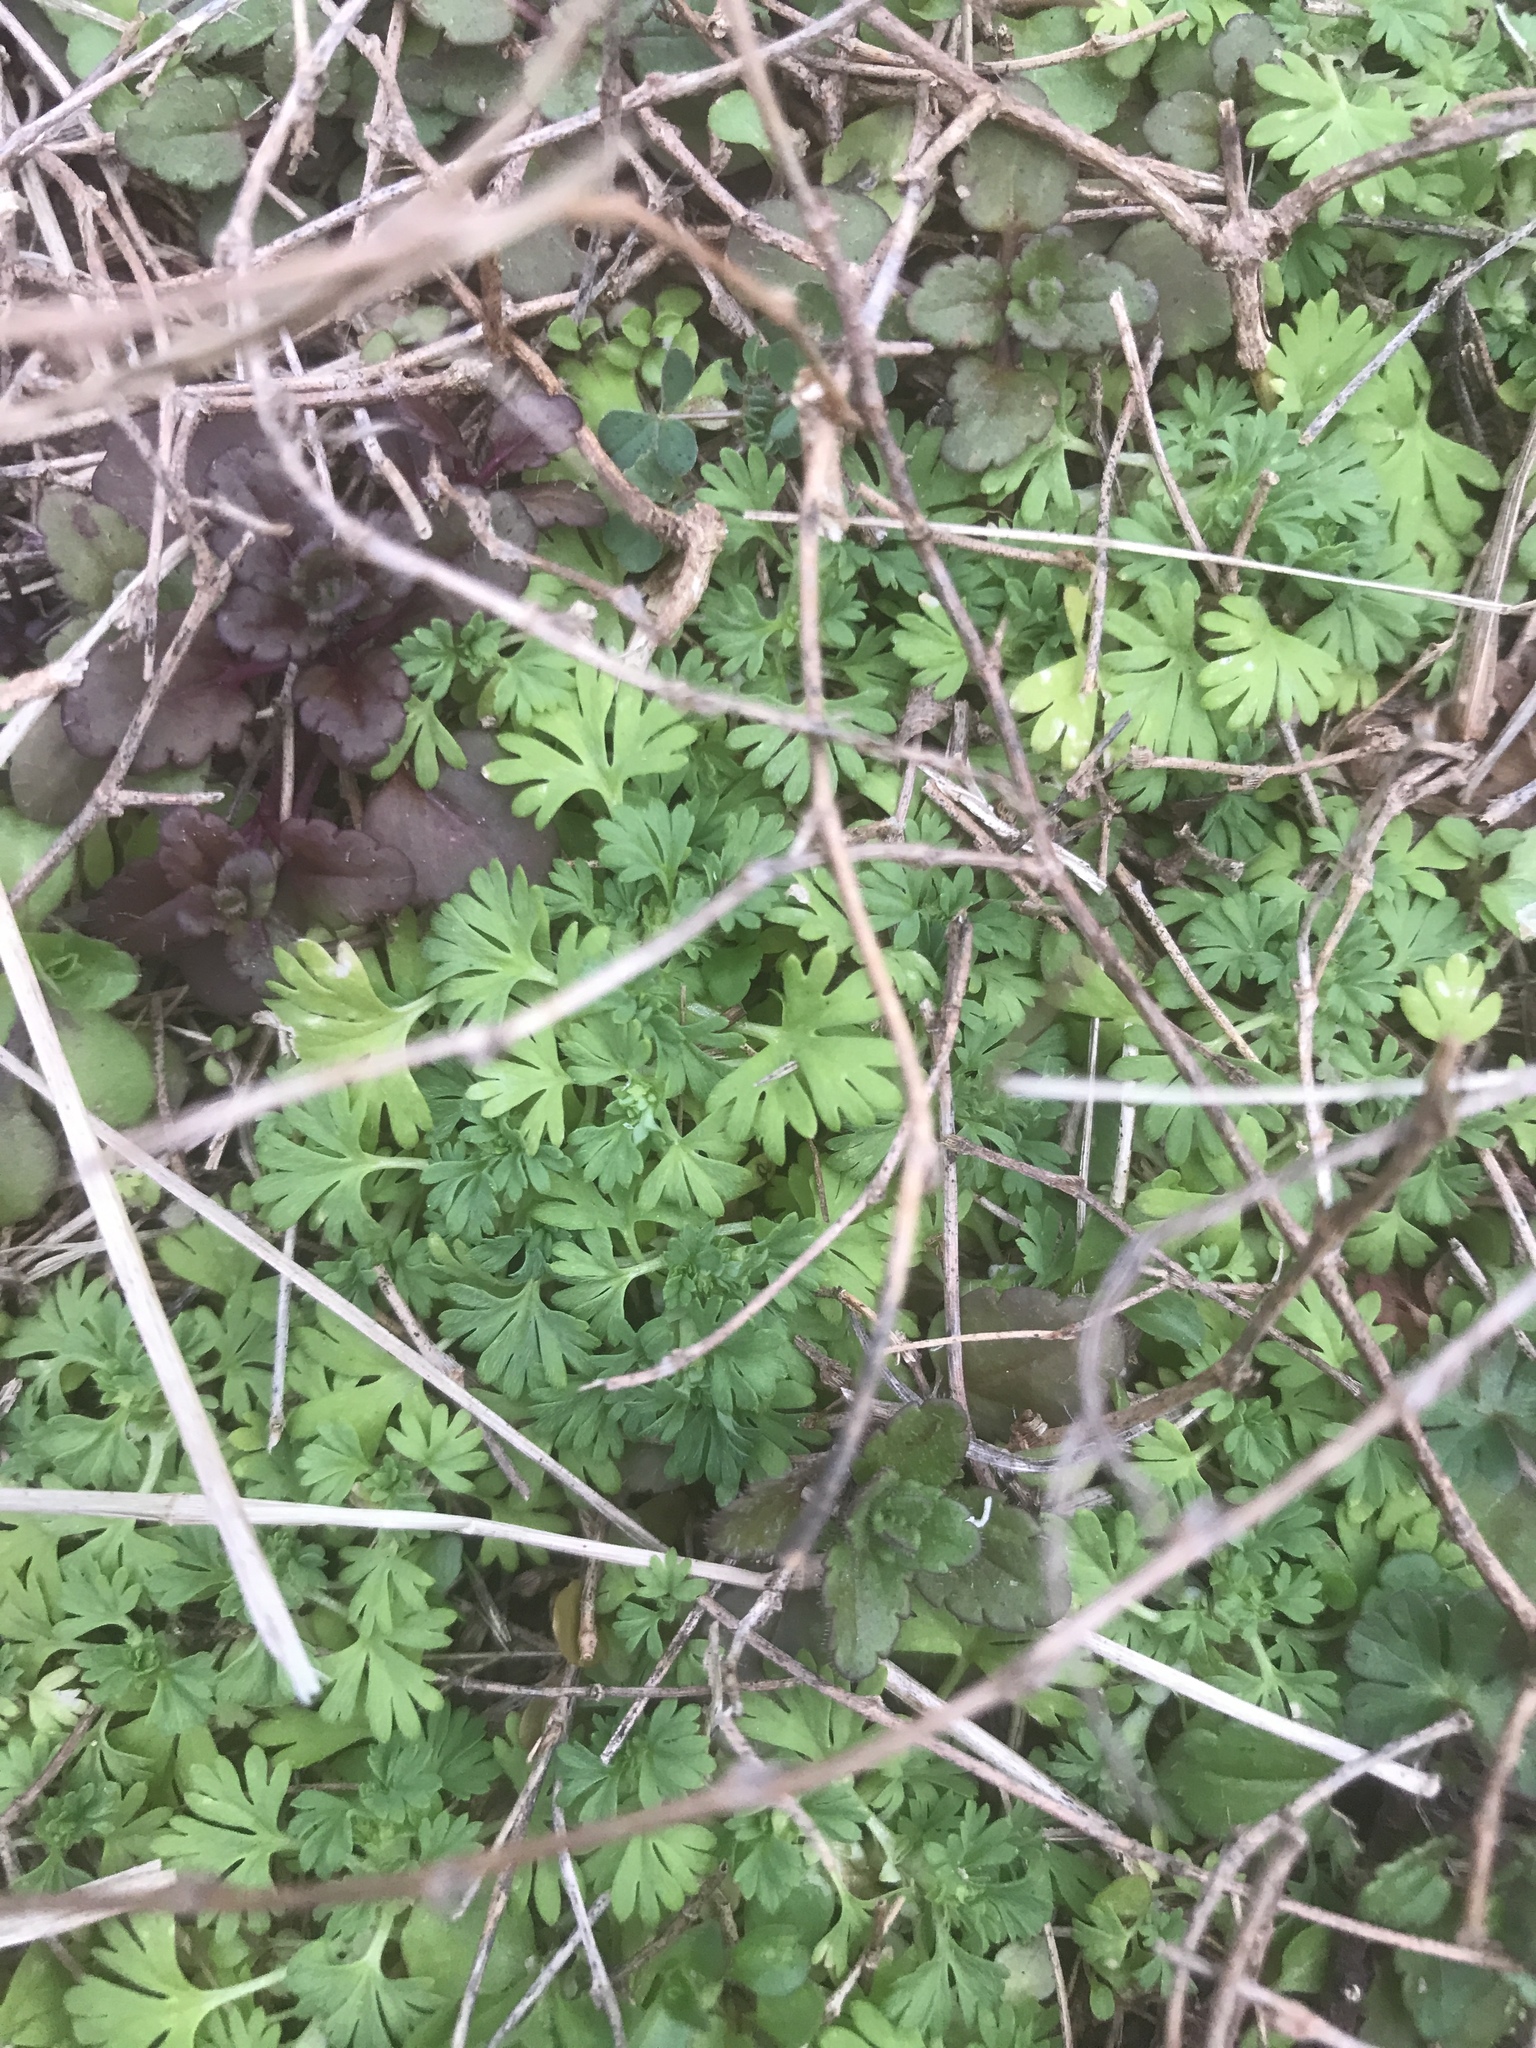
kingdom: Plantae
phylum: Tracheophyta
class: Magnoliopsida
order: Rosales
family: Rosaceae
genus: Aphanes
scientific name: Aphanes australis
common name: Slender parsley-piert
